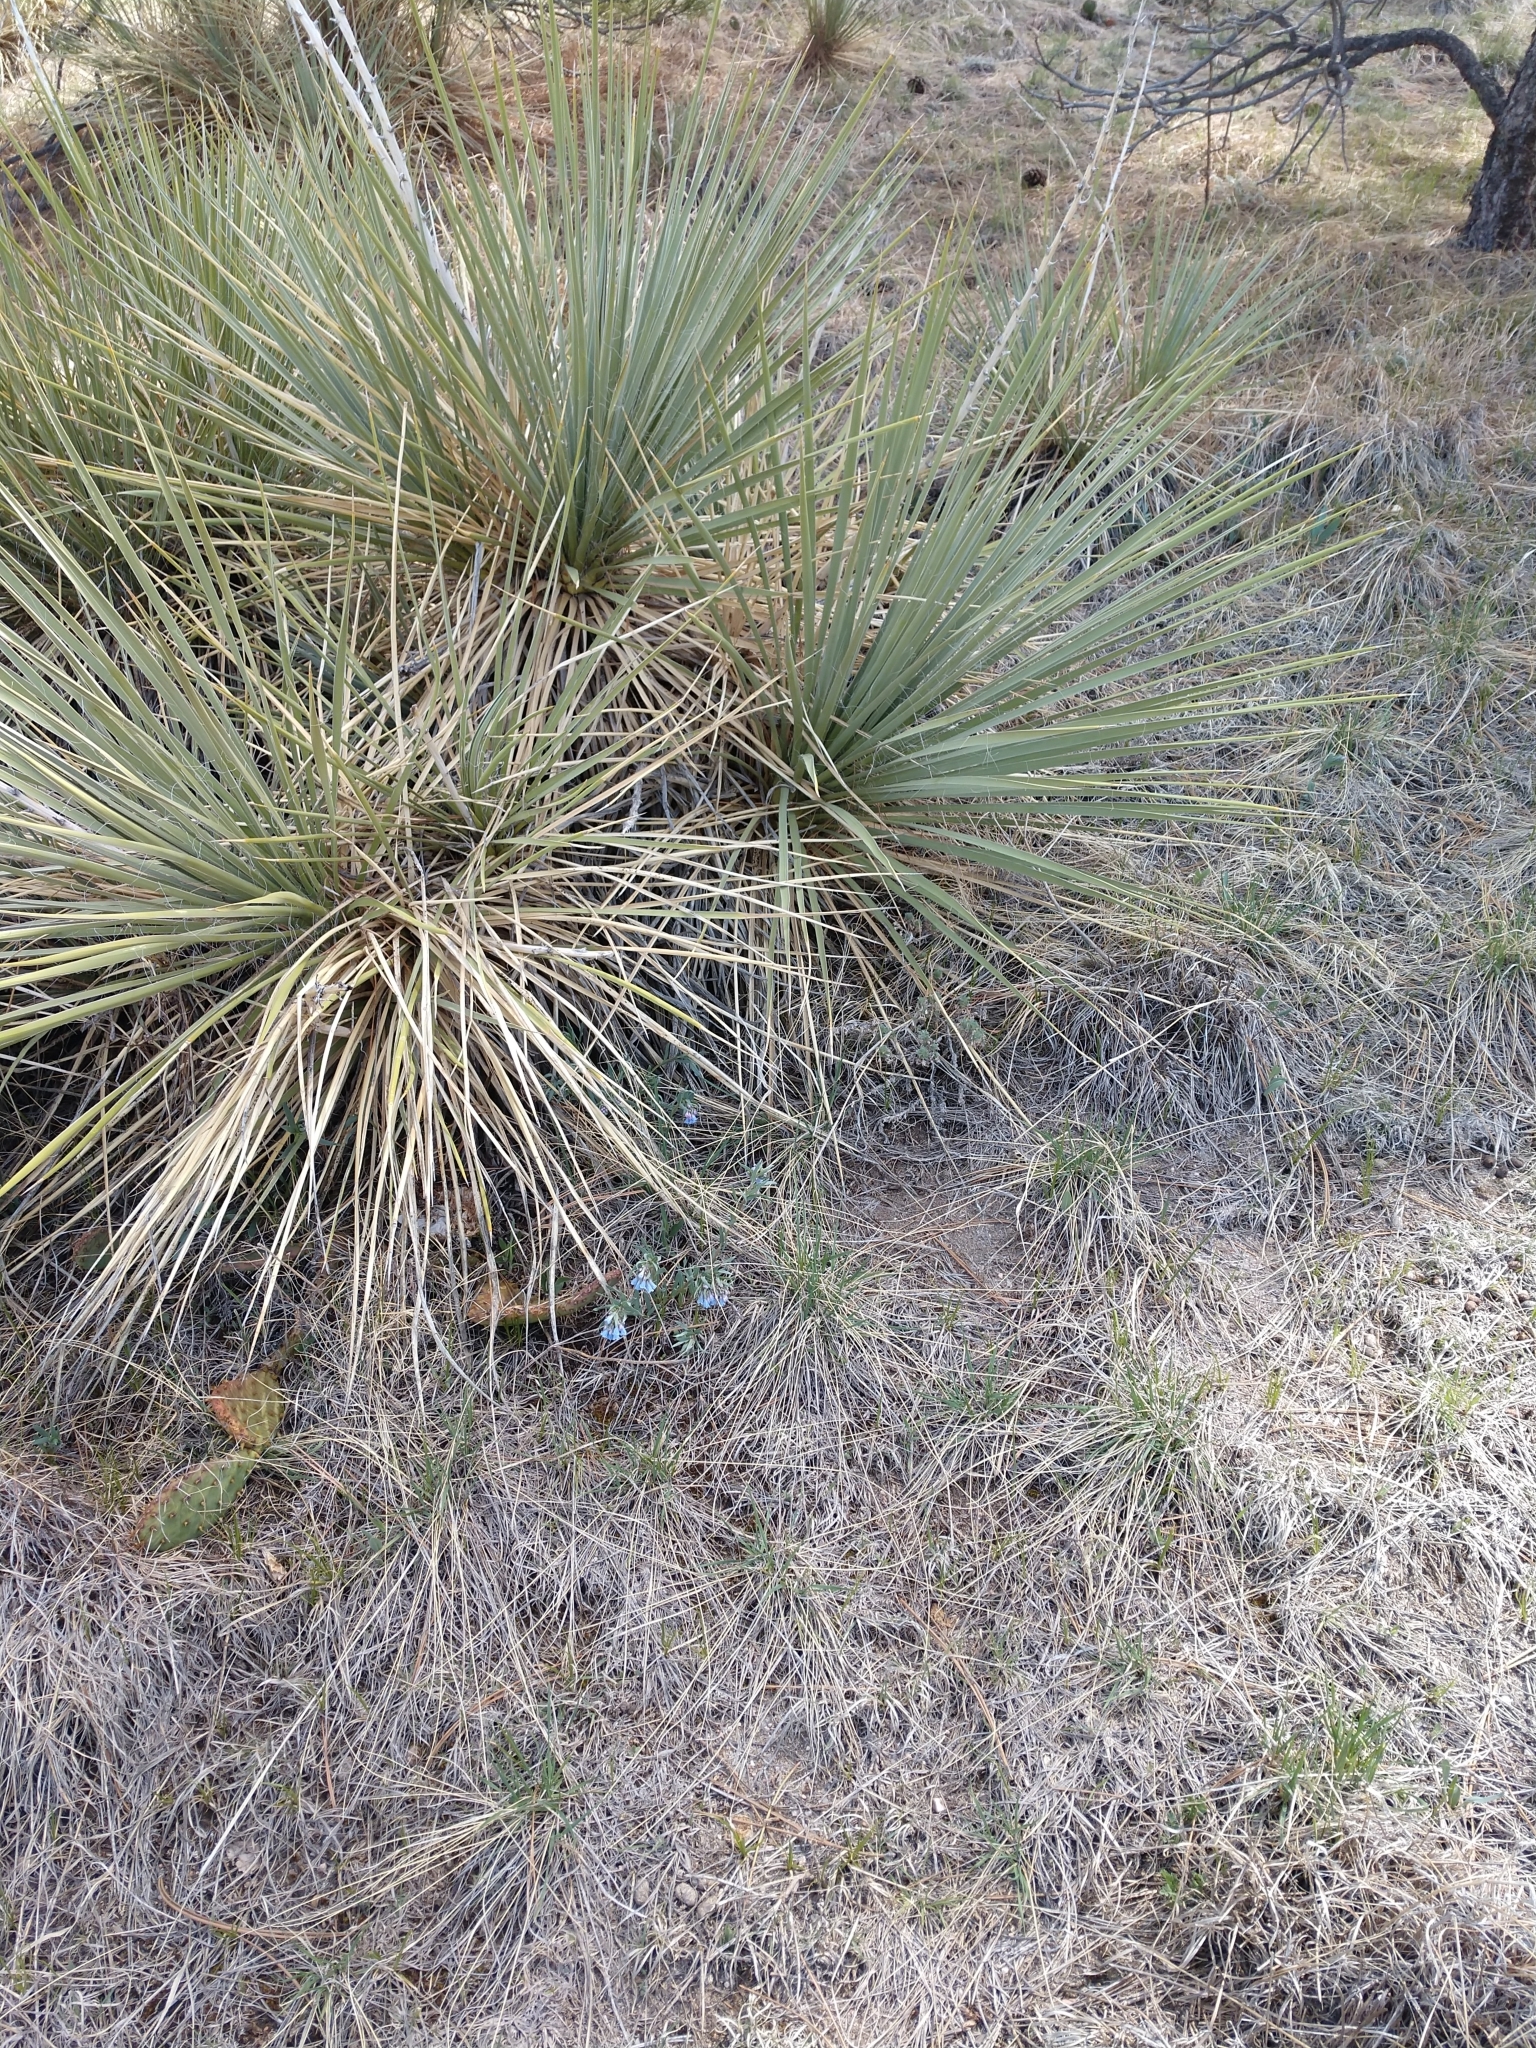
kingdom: Plantae
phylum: Tracheophyta
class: Magnoliopsida
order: Boraginales
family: Boraginaceae
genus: Mertensia
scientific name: Mertensia lanceolata
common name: Lance-leaved bluebells
